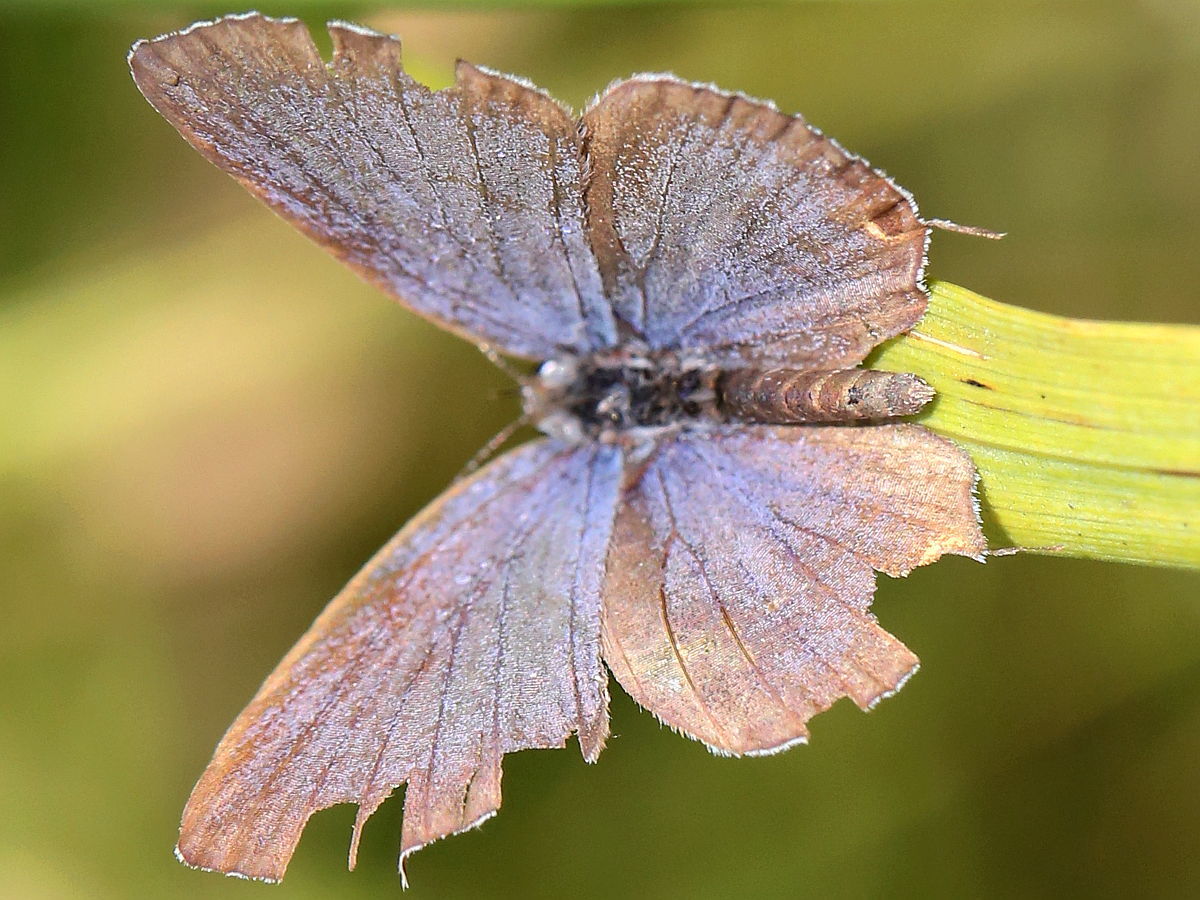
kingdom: Animalia
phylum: Arthropoda
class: Insecta
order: Lepidoptera
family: Lycaenidae
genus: Elkalyce
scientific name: Elkalyce comyntas
